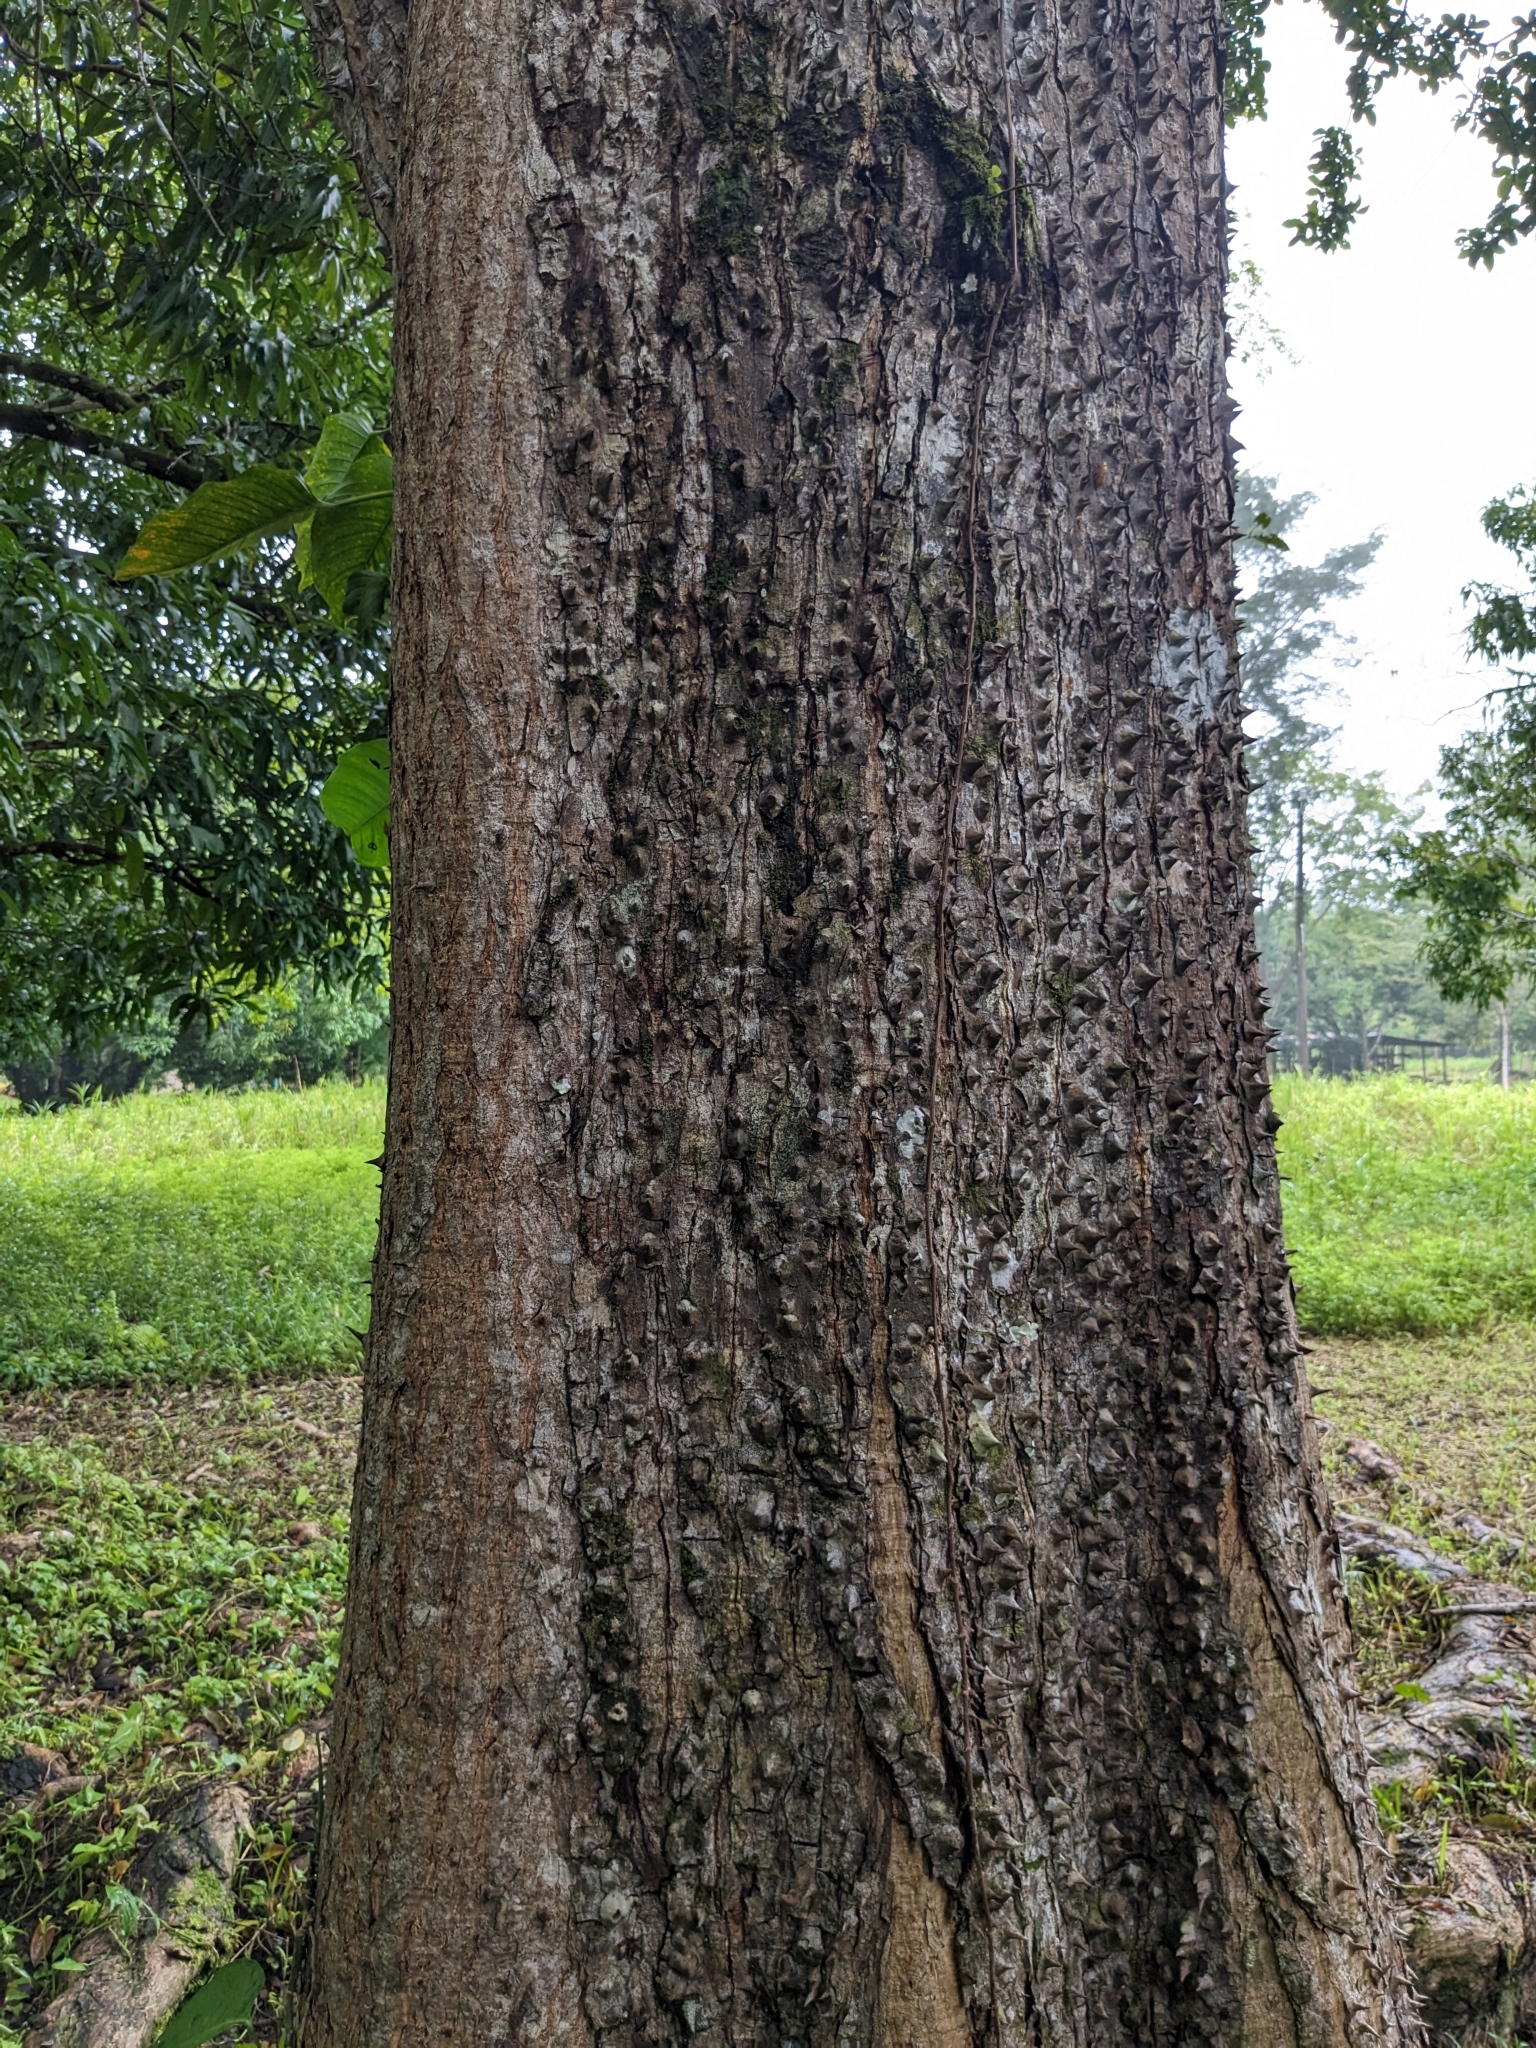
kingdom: Plantae
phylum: Tracheophyta
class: Magnoliopsida
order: Malvales
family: Malvaceae
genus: Pochota
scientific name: Pochota fendleri
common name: Chestnut
